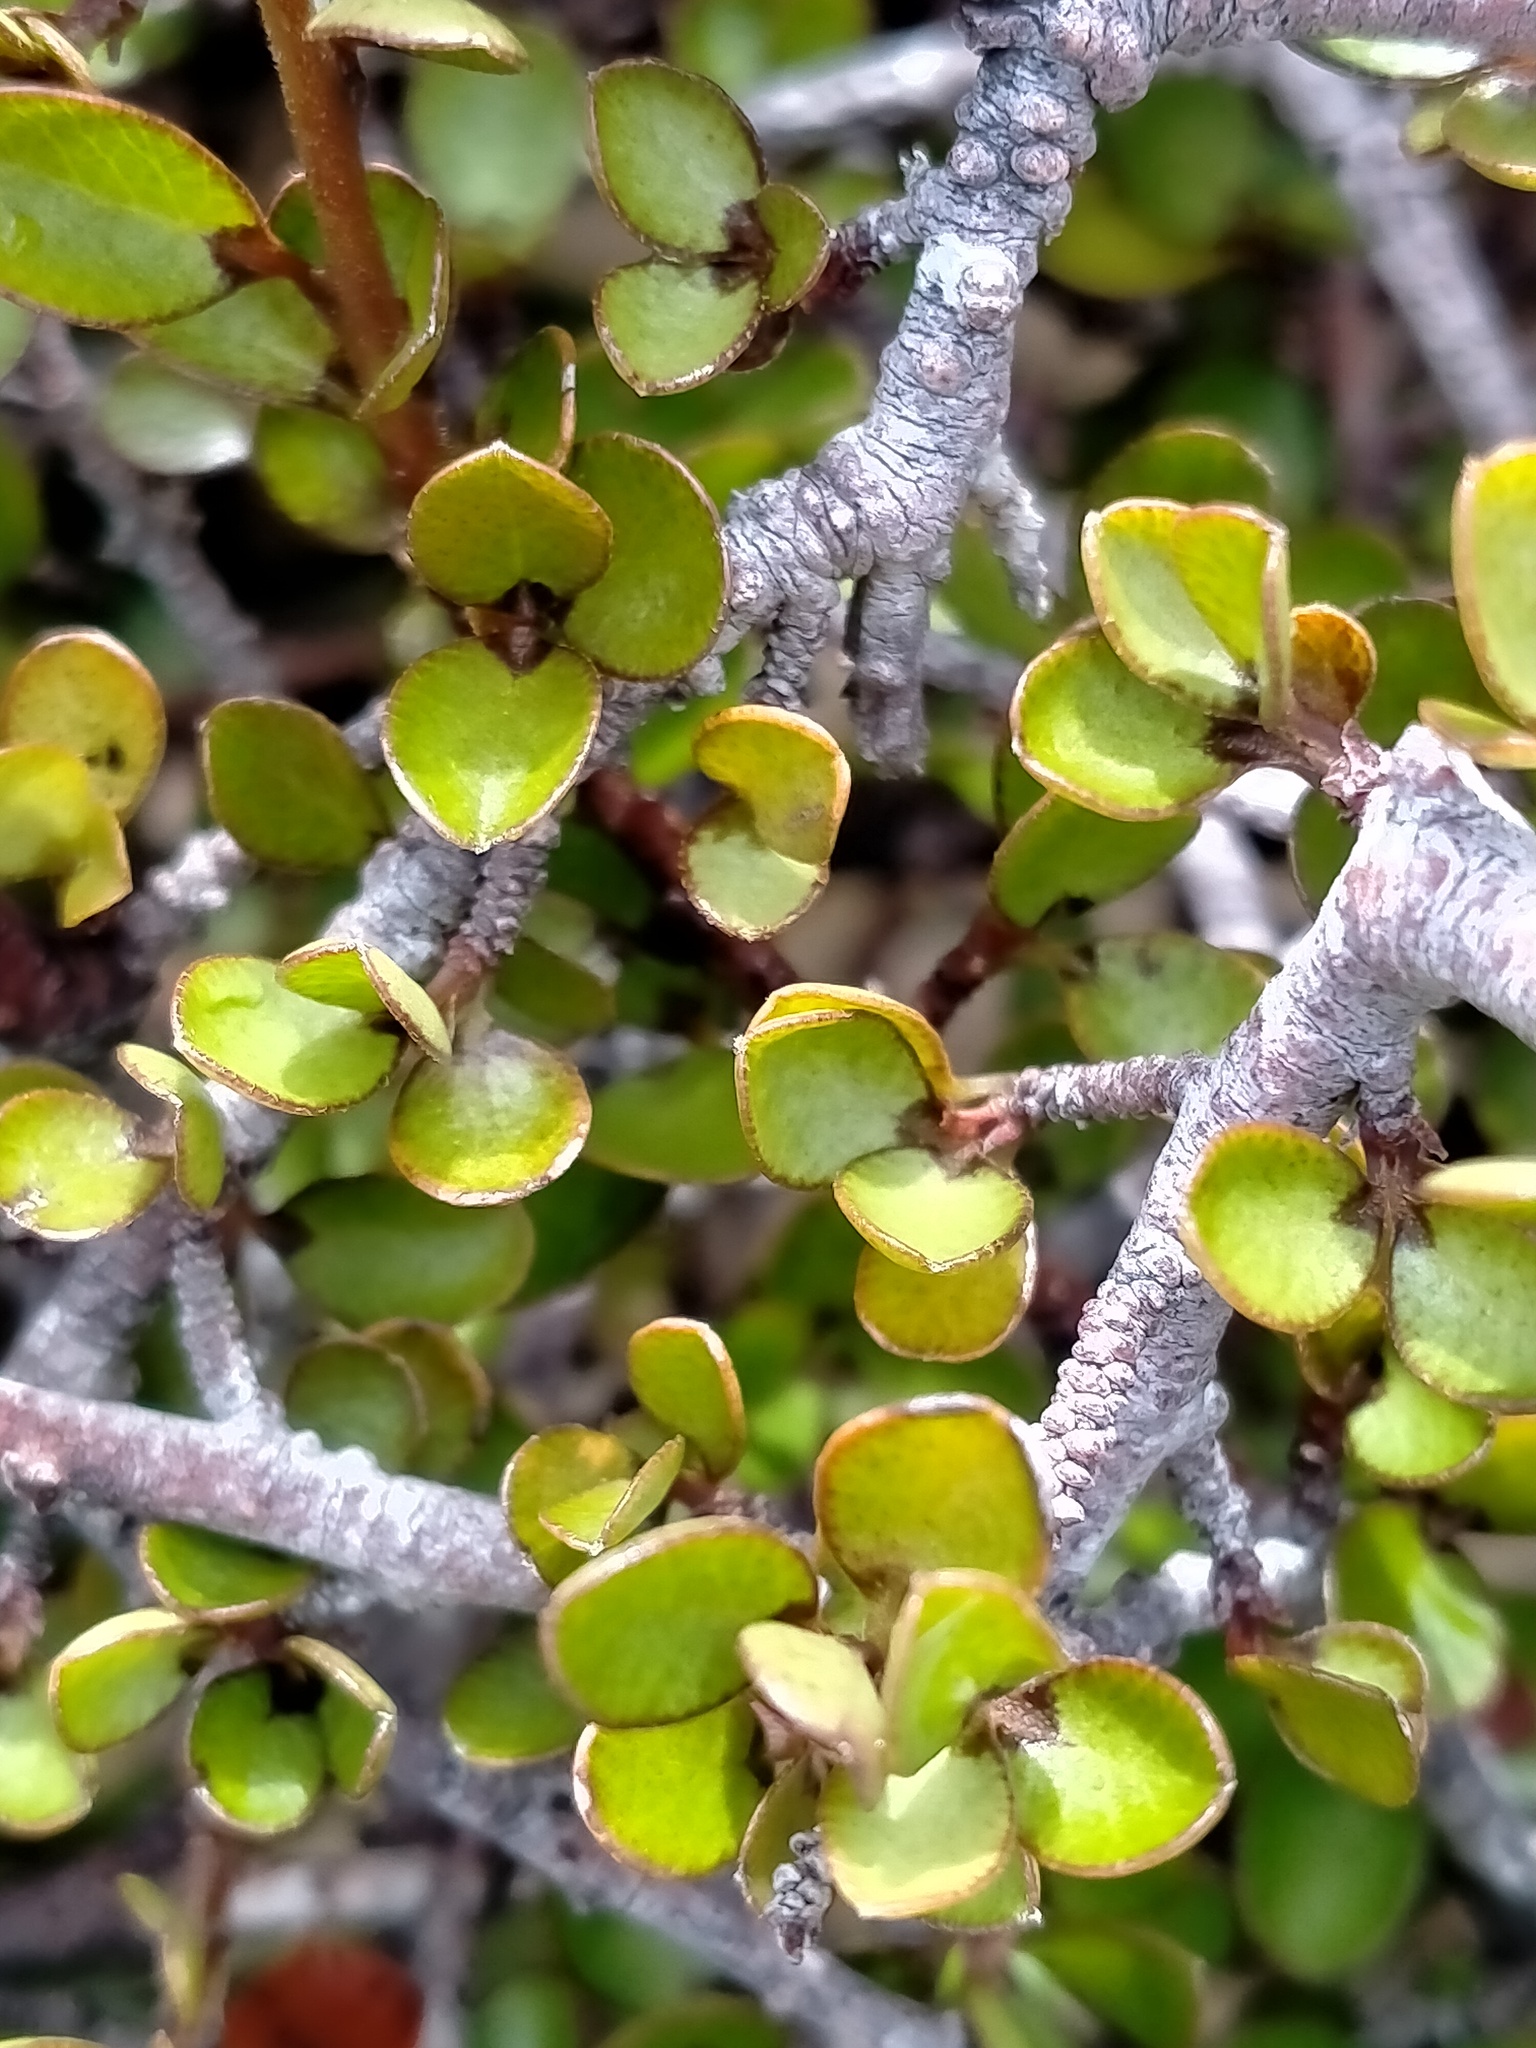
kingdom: Plantae
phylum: Tracheophyta
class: Magnoliopsida
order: Ericales
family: Primulaceae
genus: Myrsine
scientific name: Myrsine divaricata
